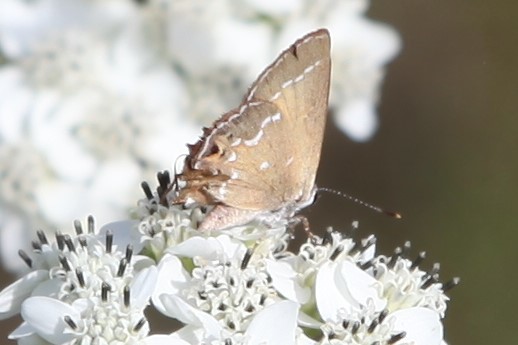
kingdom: Animalia
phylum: Arthropoda
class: Insecta
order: Lepidoptera
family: Lycaenidae
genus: Mitoura
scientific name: Mitoura gryneus
